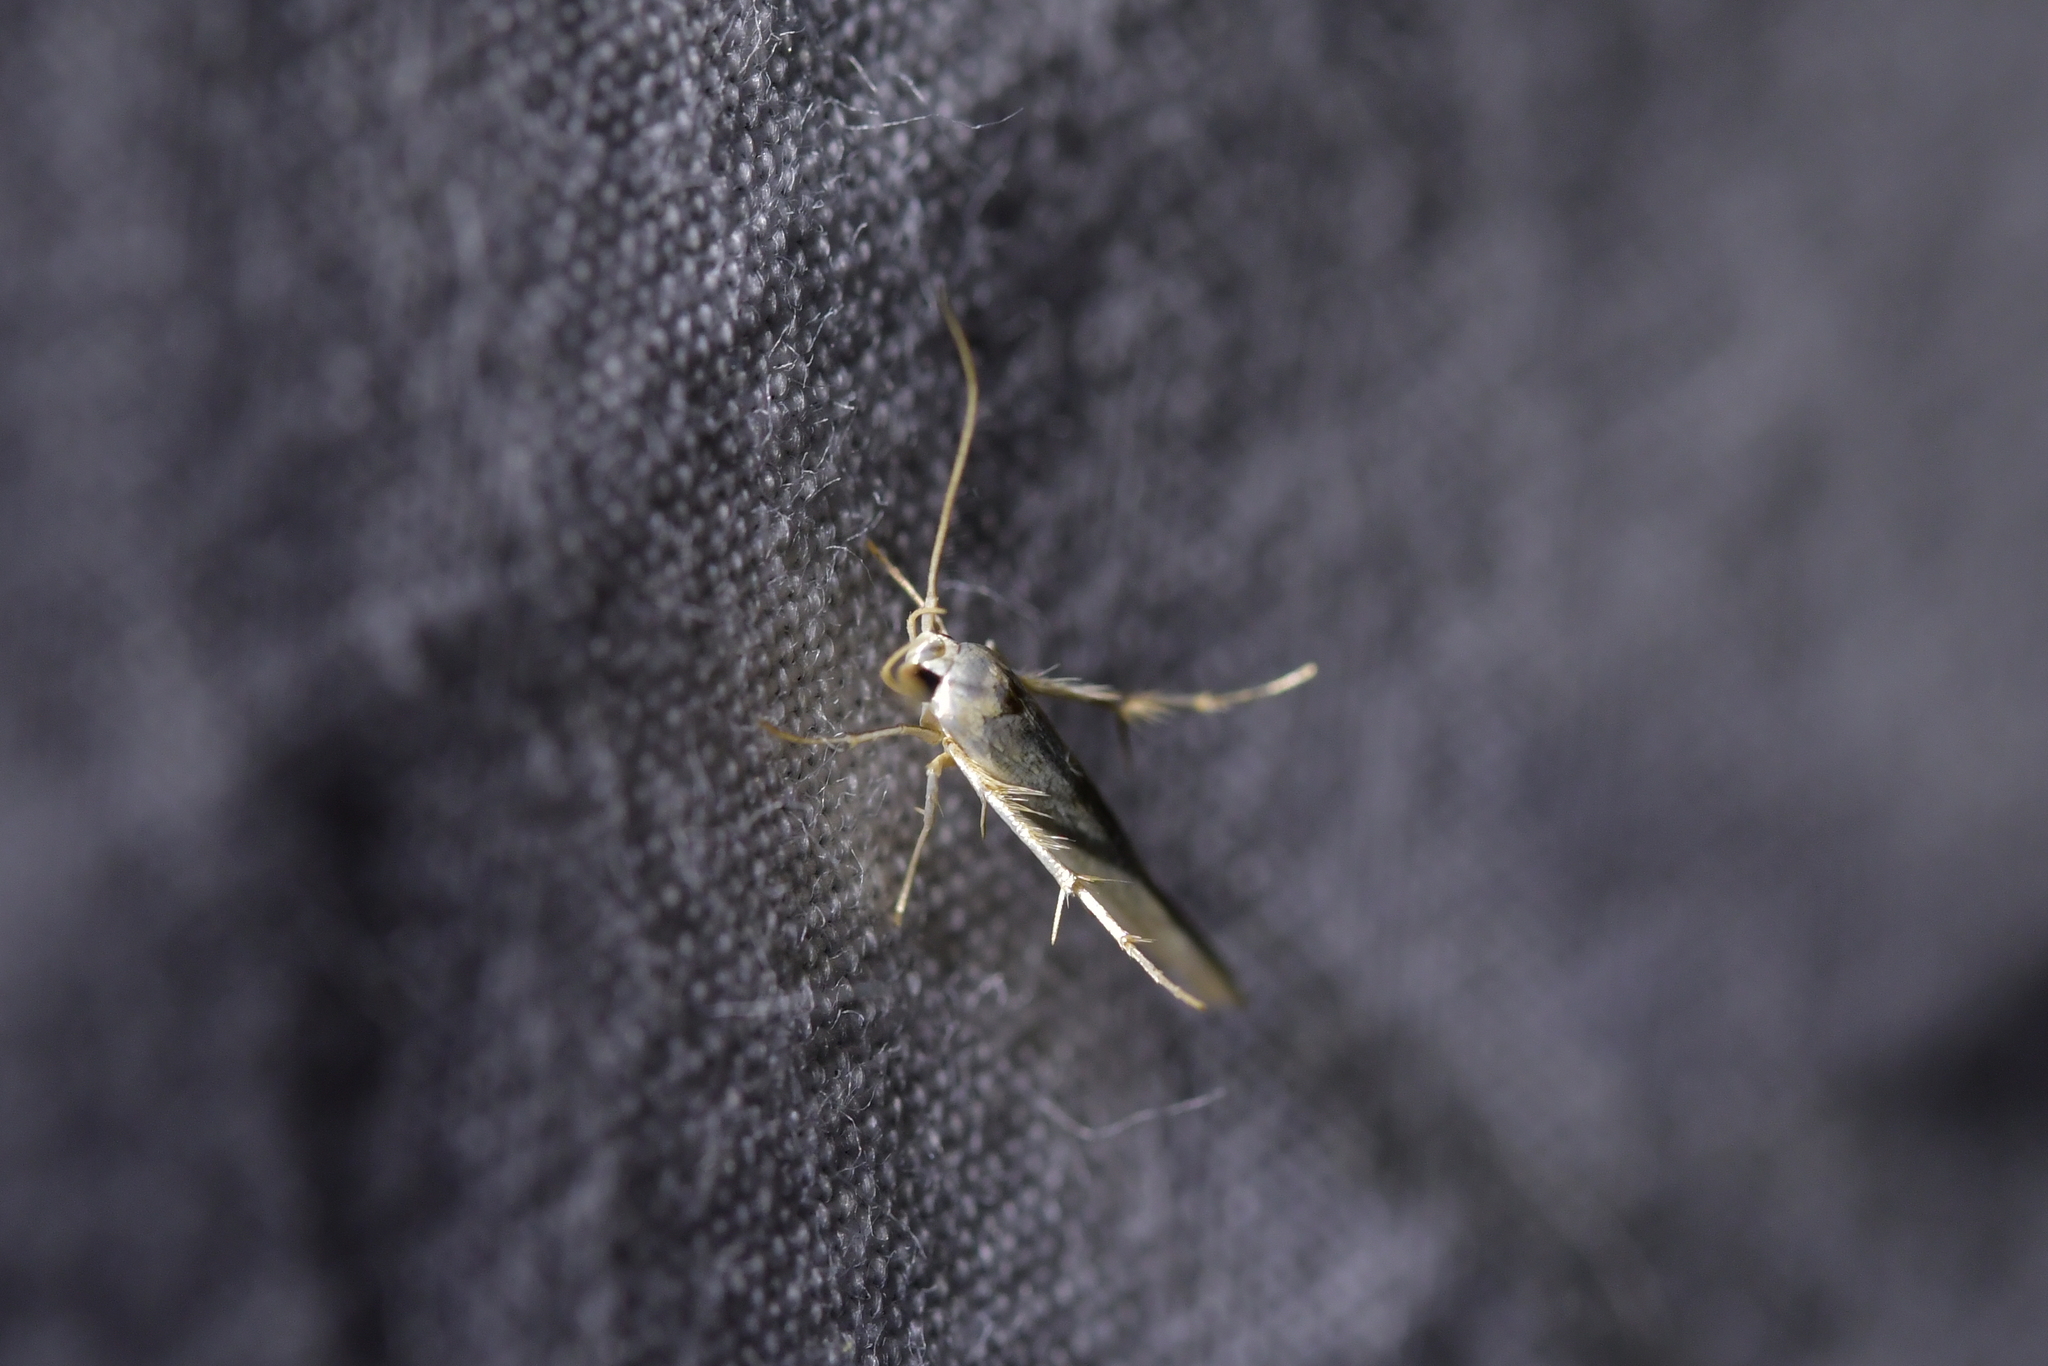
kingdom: Animalia
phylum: Arthropoda
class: Insecta
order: Lepidoptera
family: Stathmopodidae
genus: Stathmopoda
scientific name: Stathmopoda horticola
